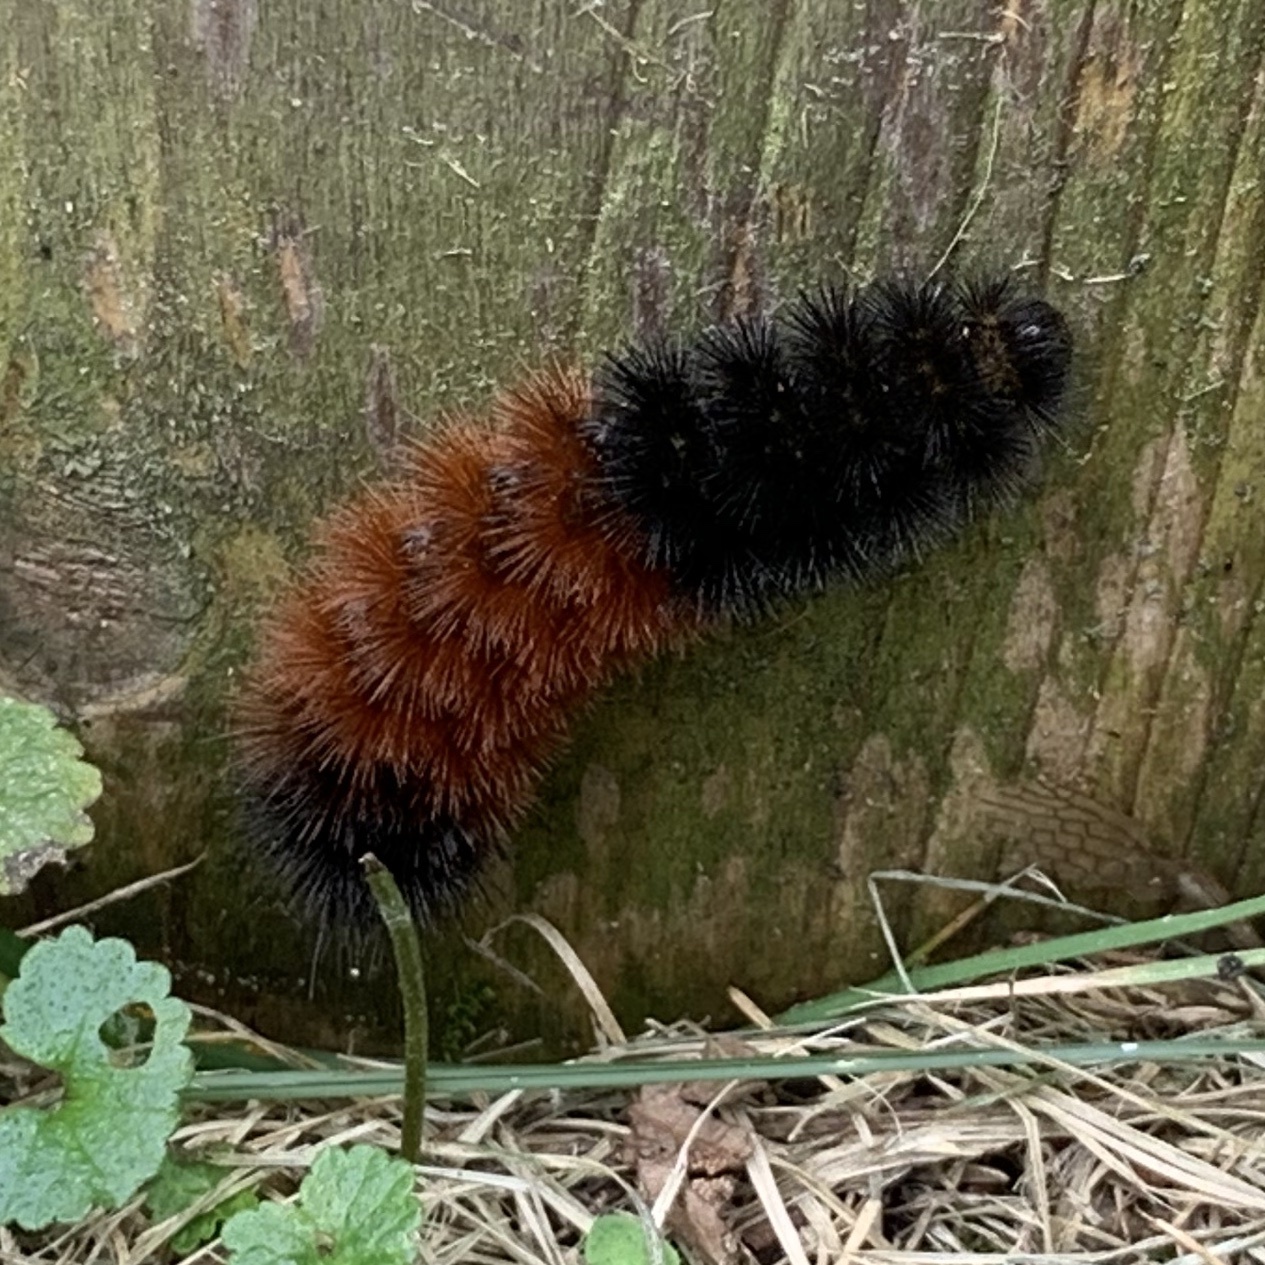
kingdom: Animalia
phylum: Arthropoda
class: Insecta
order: Lepidoptera
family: Erebidae
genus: Pyrrharctia
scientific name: Pyrrharctia isabella
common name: Isabella tiger moth
